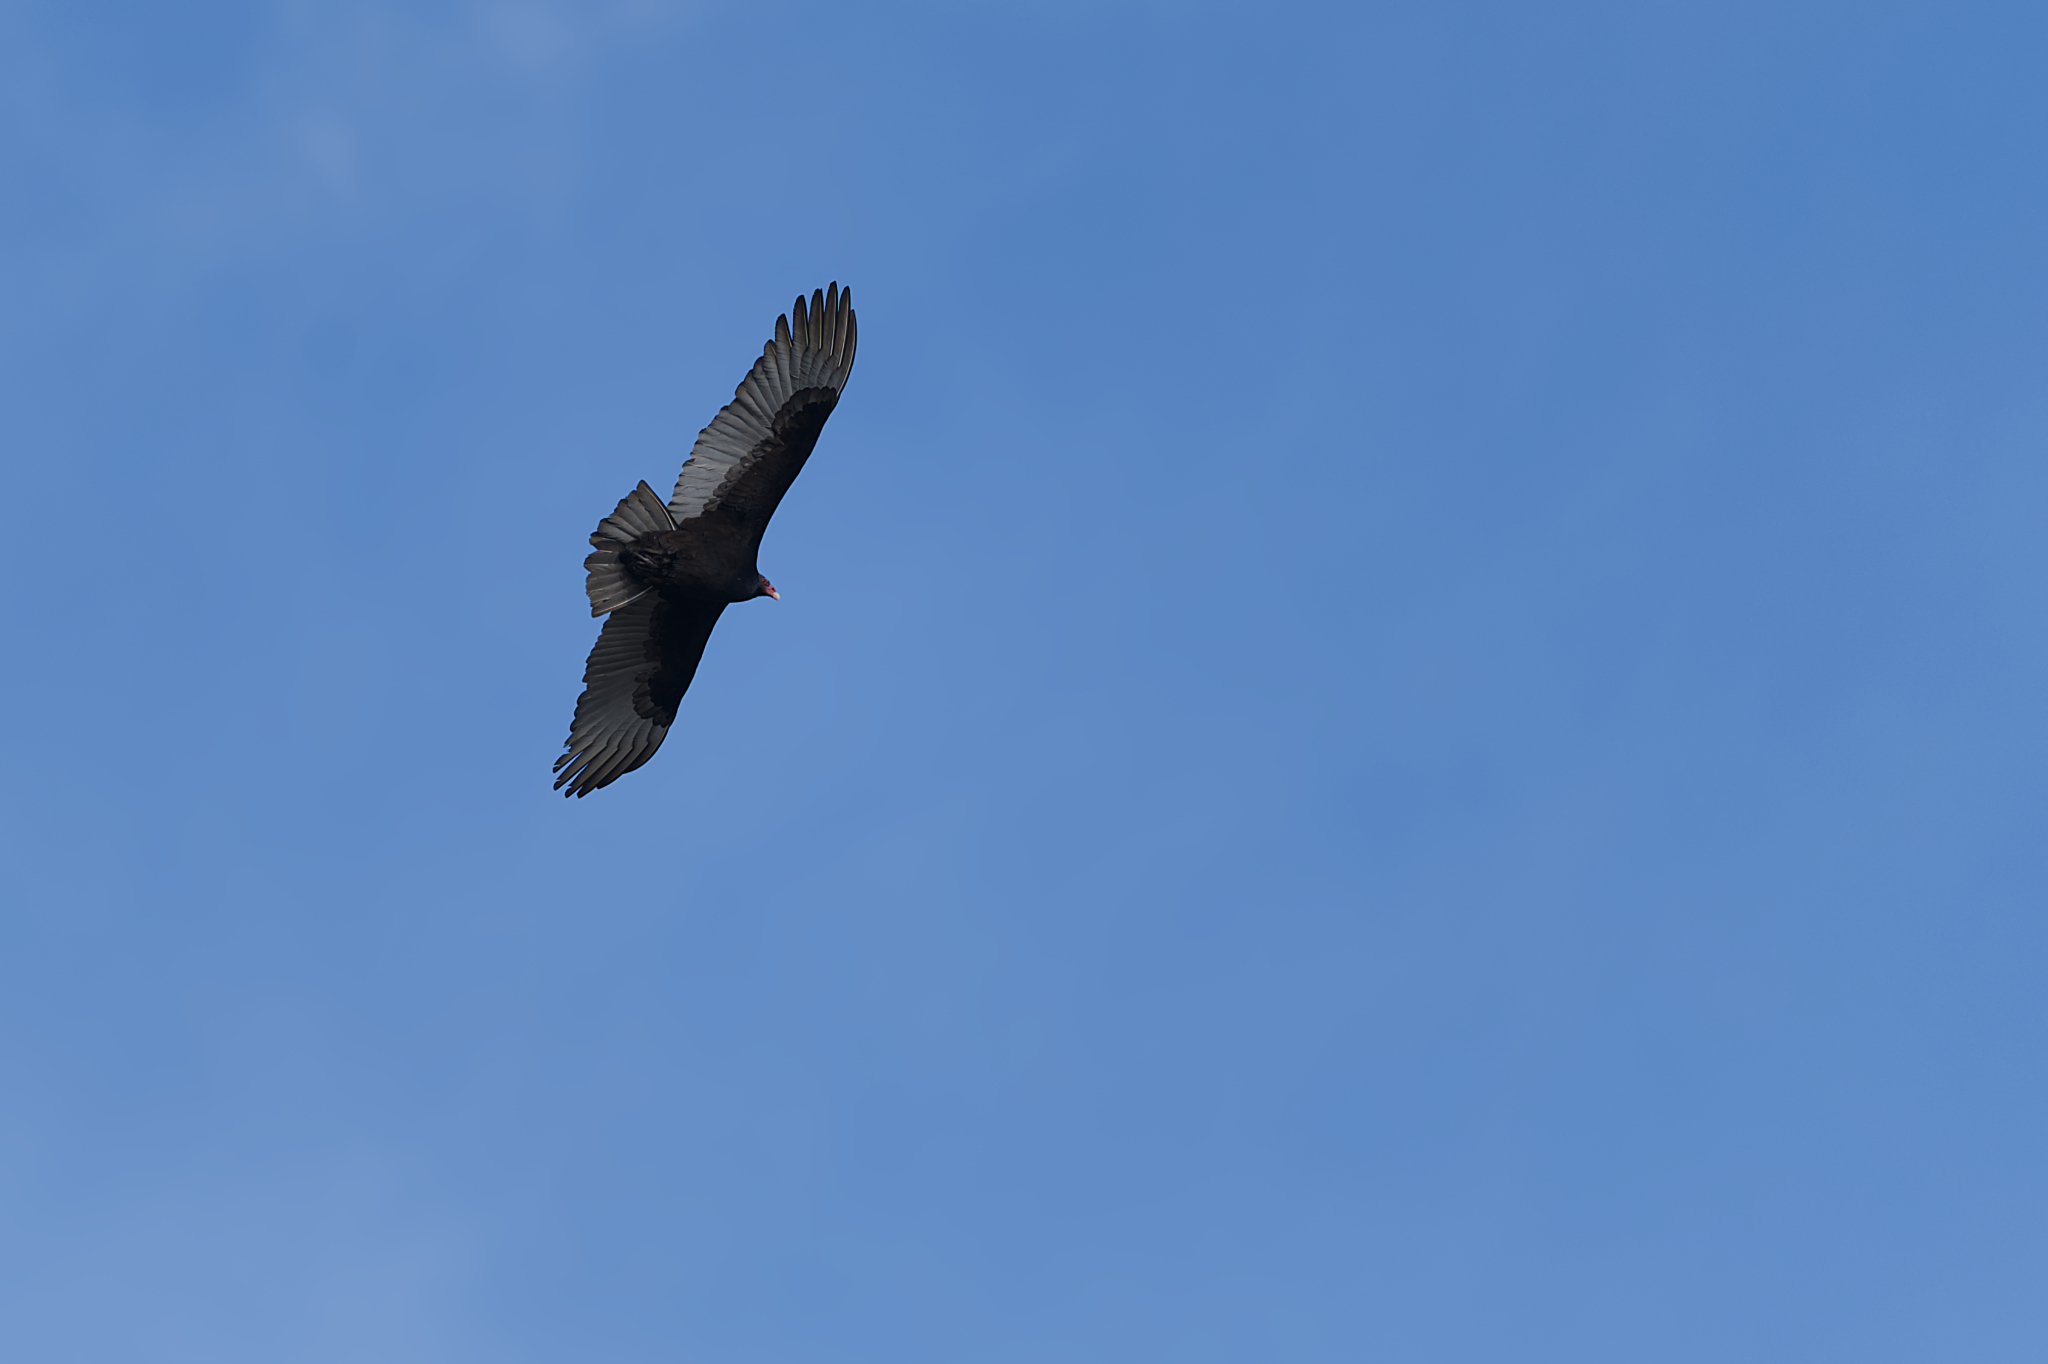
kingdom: Animalia
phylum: Chordata
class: Aves
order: Accipitriformes
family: Cathartidae
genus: Cathartes
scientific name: Cathartes aura
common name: Turkey vulture
